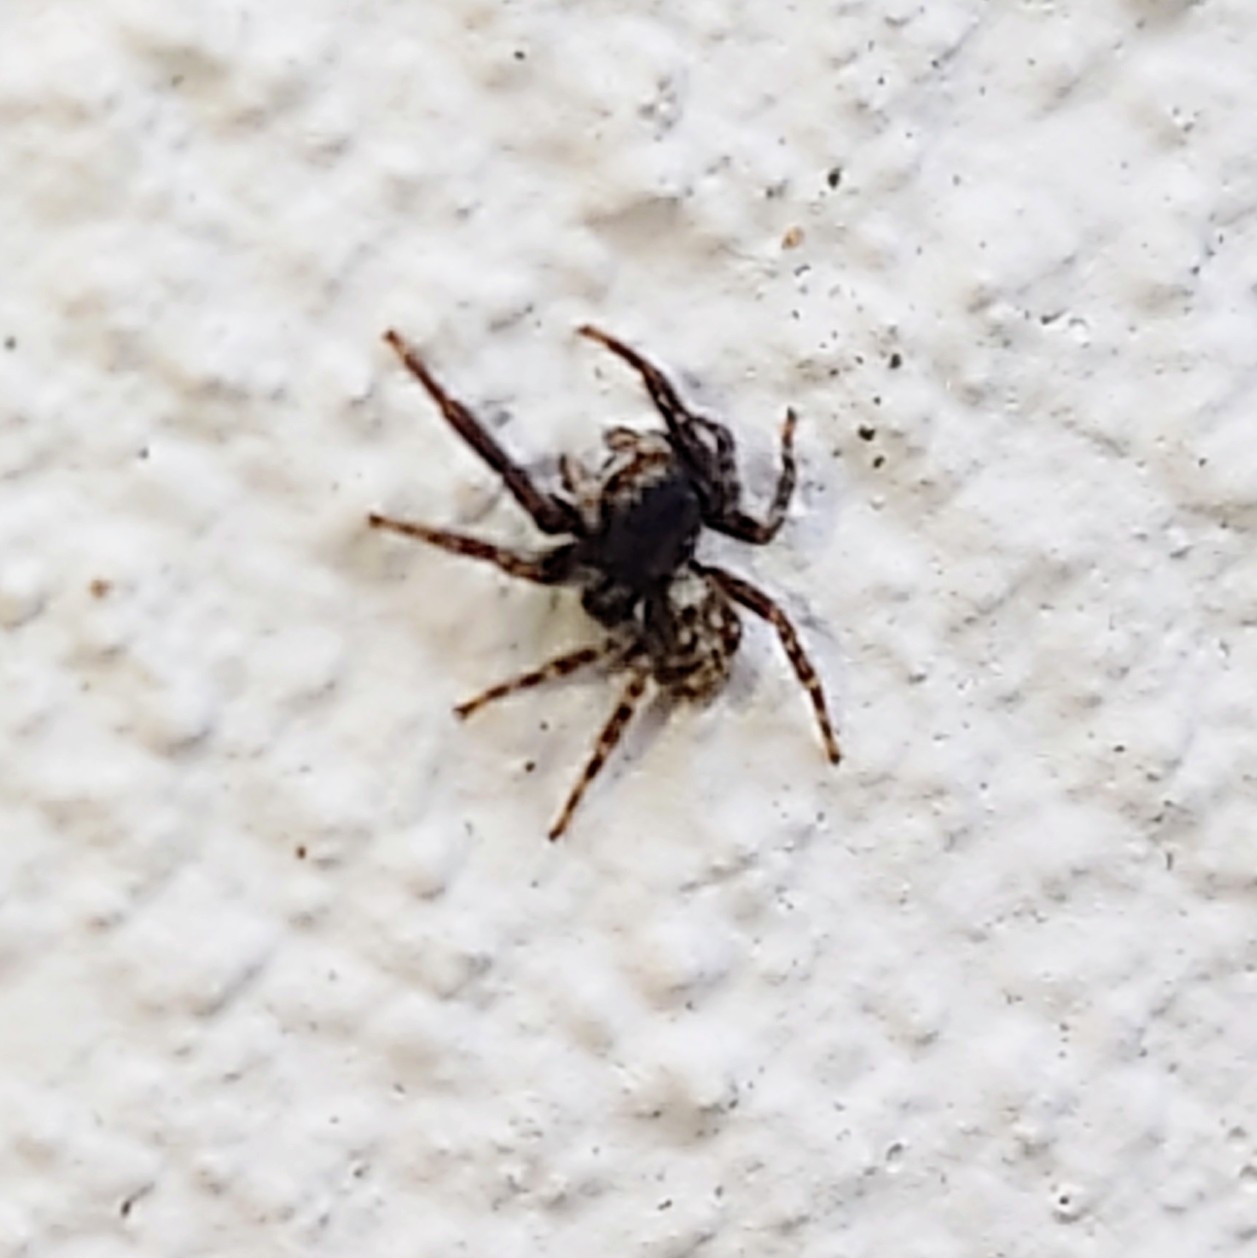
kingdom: Animalia
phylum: Arthropoda
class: Arachnida
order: Araneae
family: Salticidae
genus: Pseudeuophrys
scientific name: Pseudeuophrys lanigera
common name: Jumping spider
